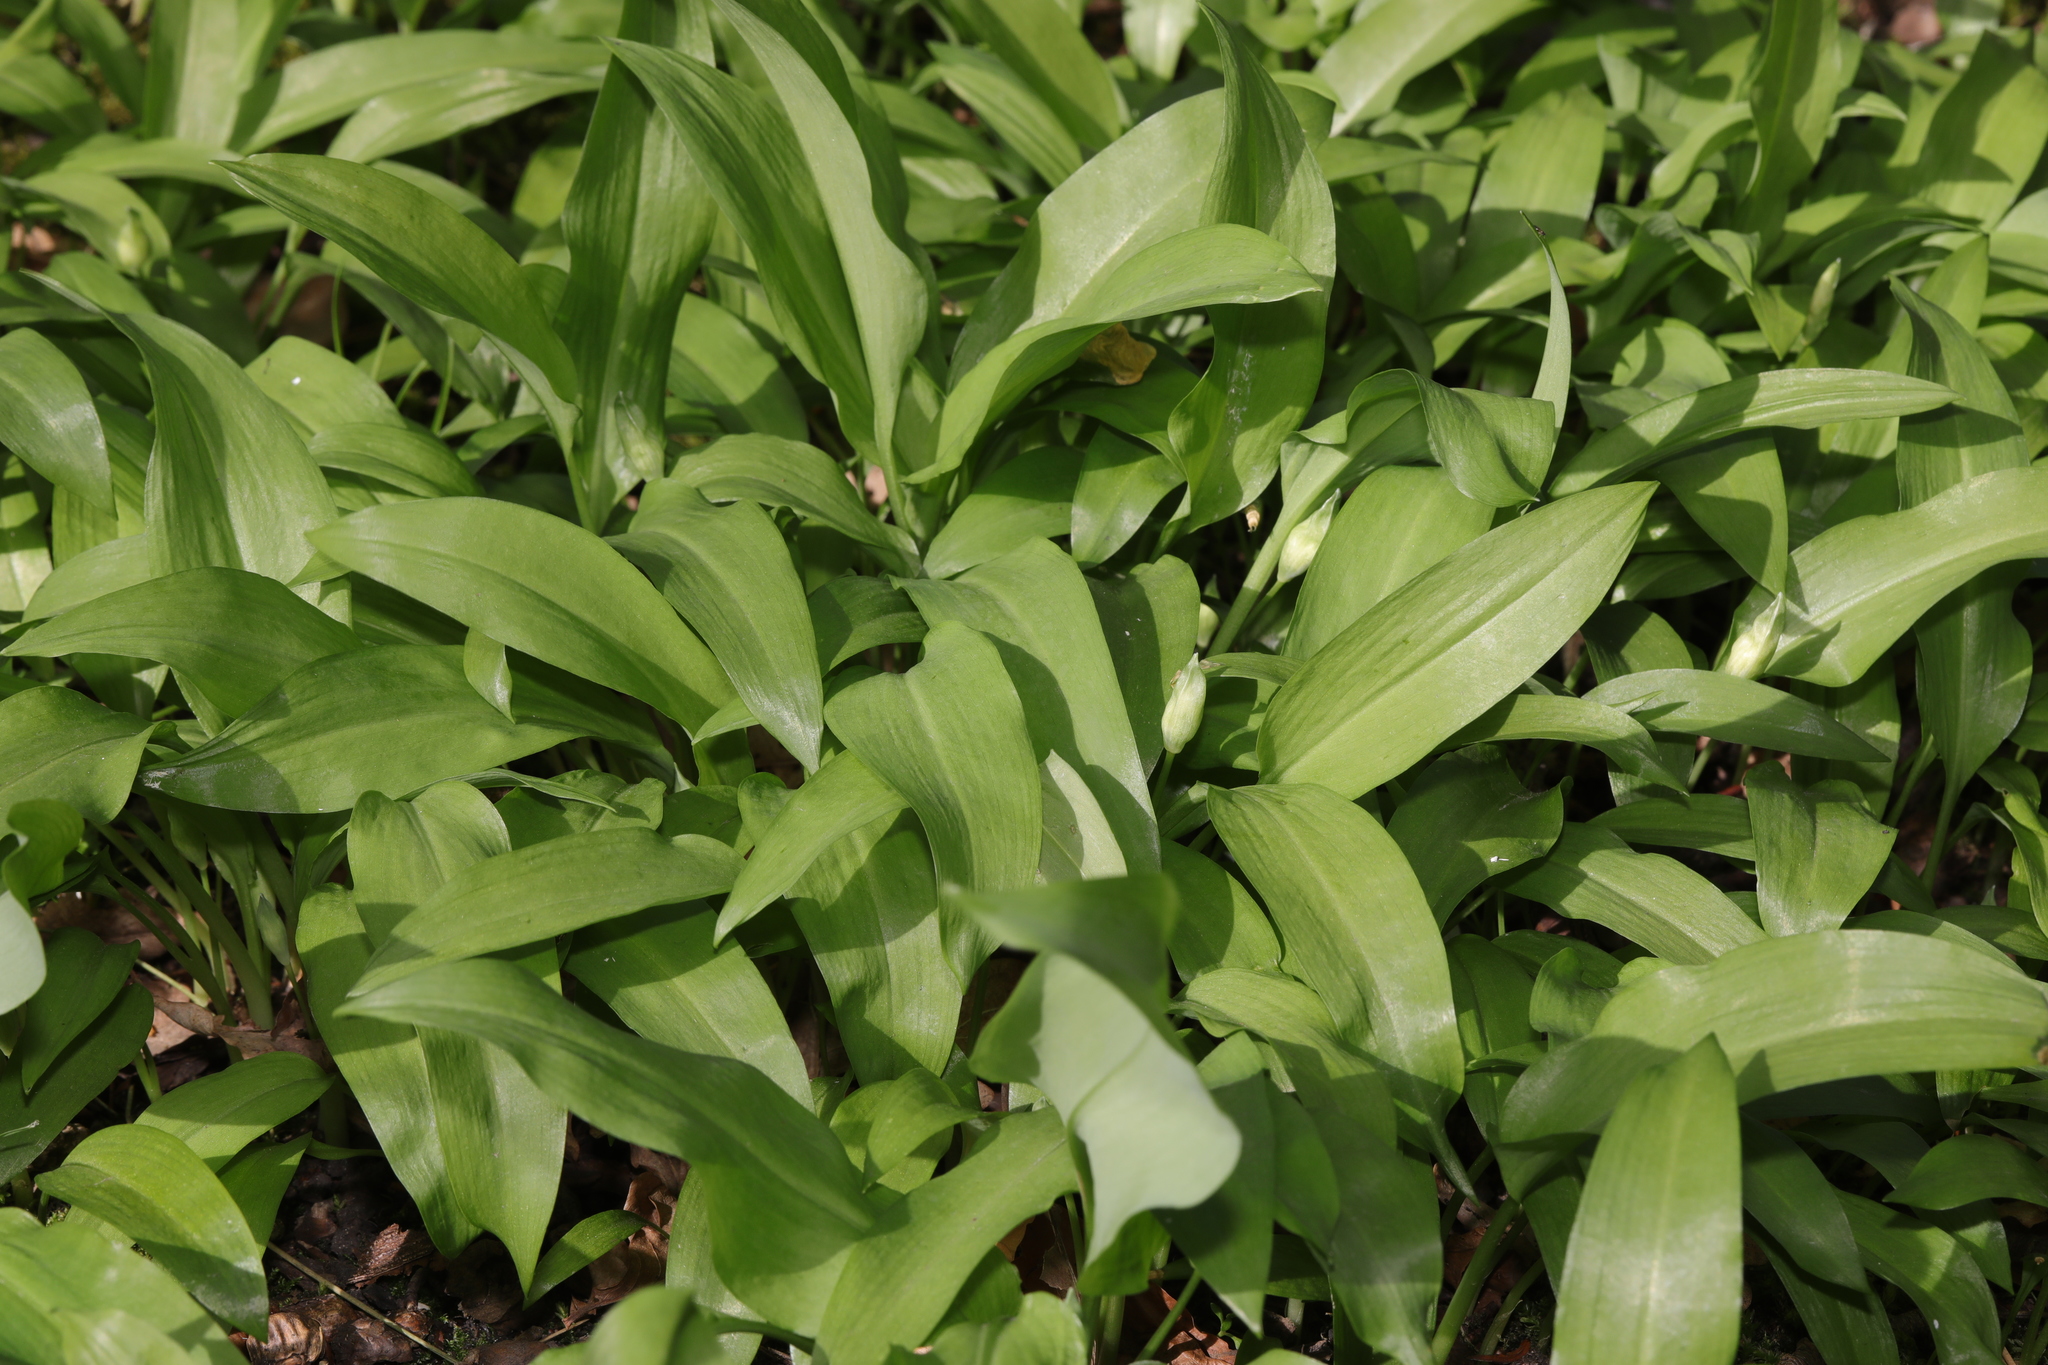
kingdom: Plantae
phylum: Tracheophyta
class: Liliopsida
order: Asparagales
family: Amaryllidaceae
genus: Allium
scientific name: Allium ursinum
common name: Ramsons
